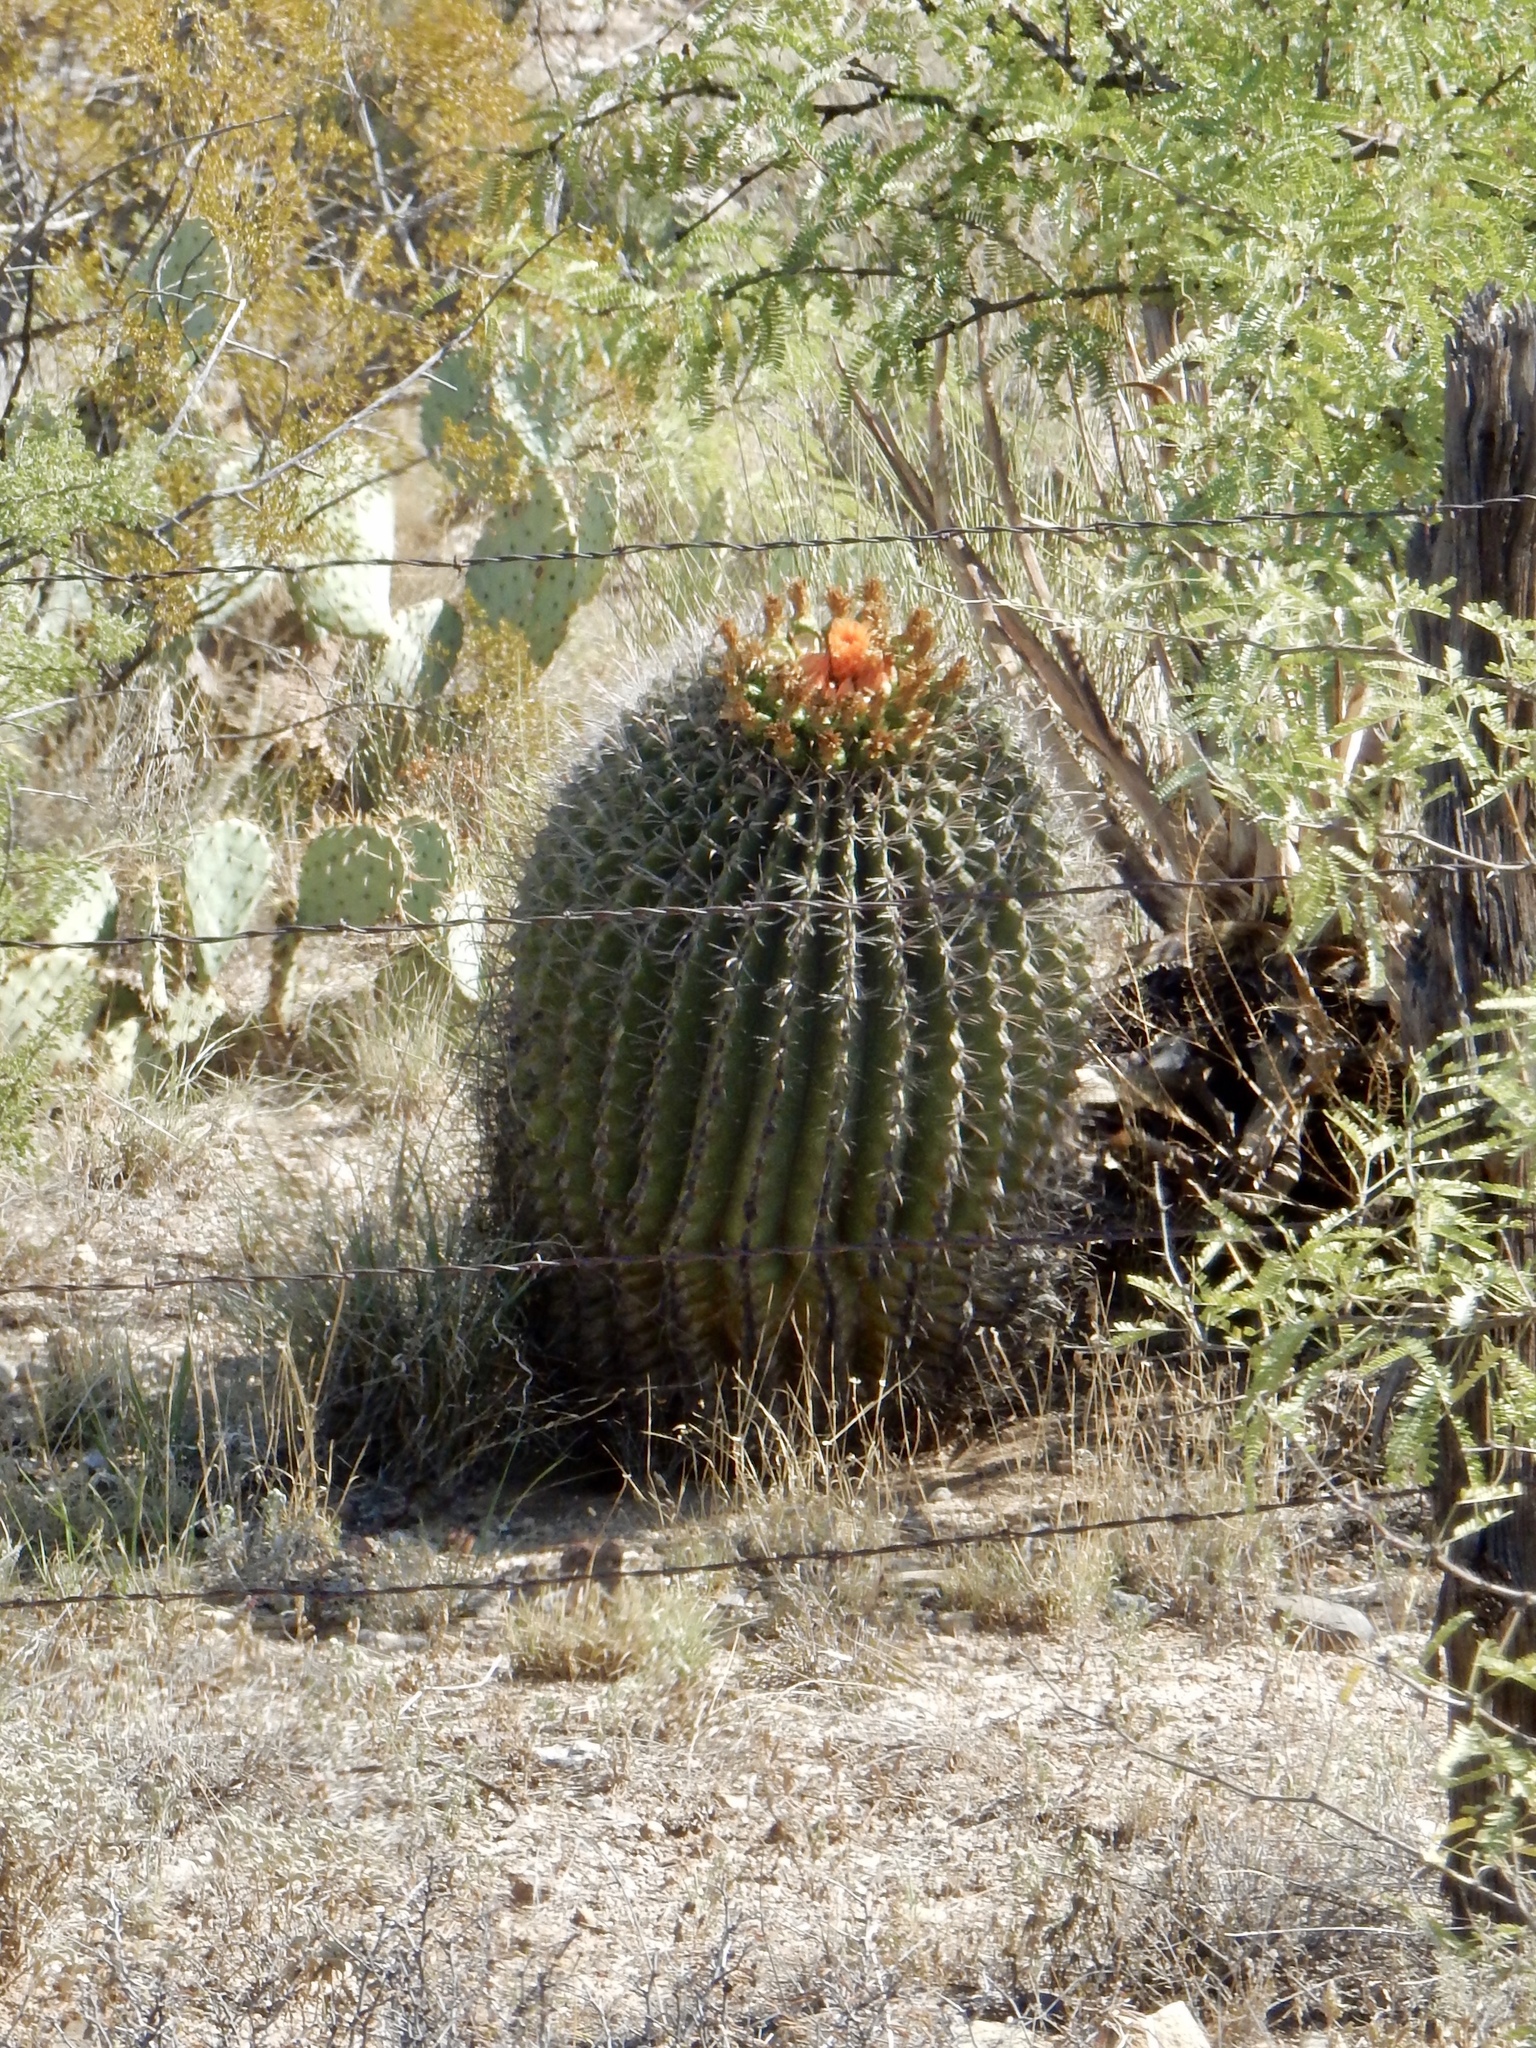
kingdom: Plantae
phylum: Tracheophyta
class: Magnoliopsida
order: Caryophyllales
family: Cactaceae
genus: Ferocactus
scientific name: Ferocactus wislizeni
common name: Candy barrel cactus
